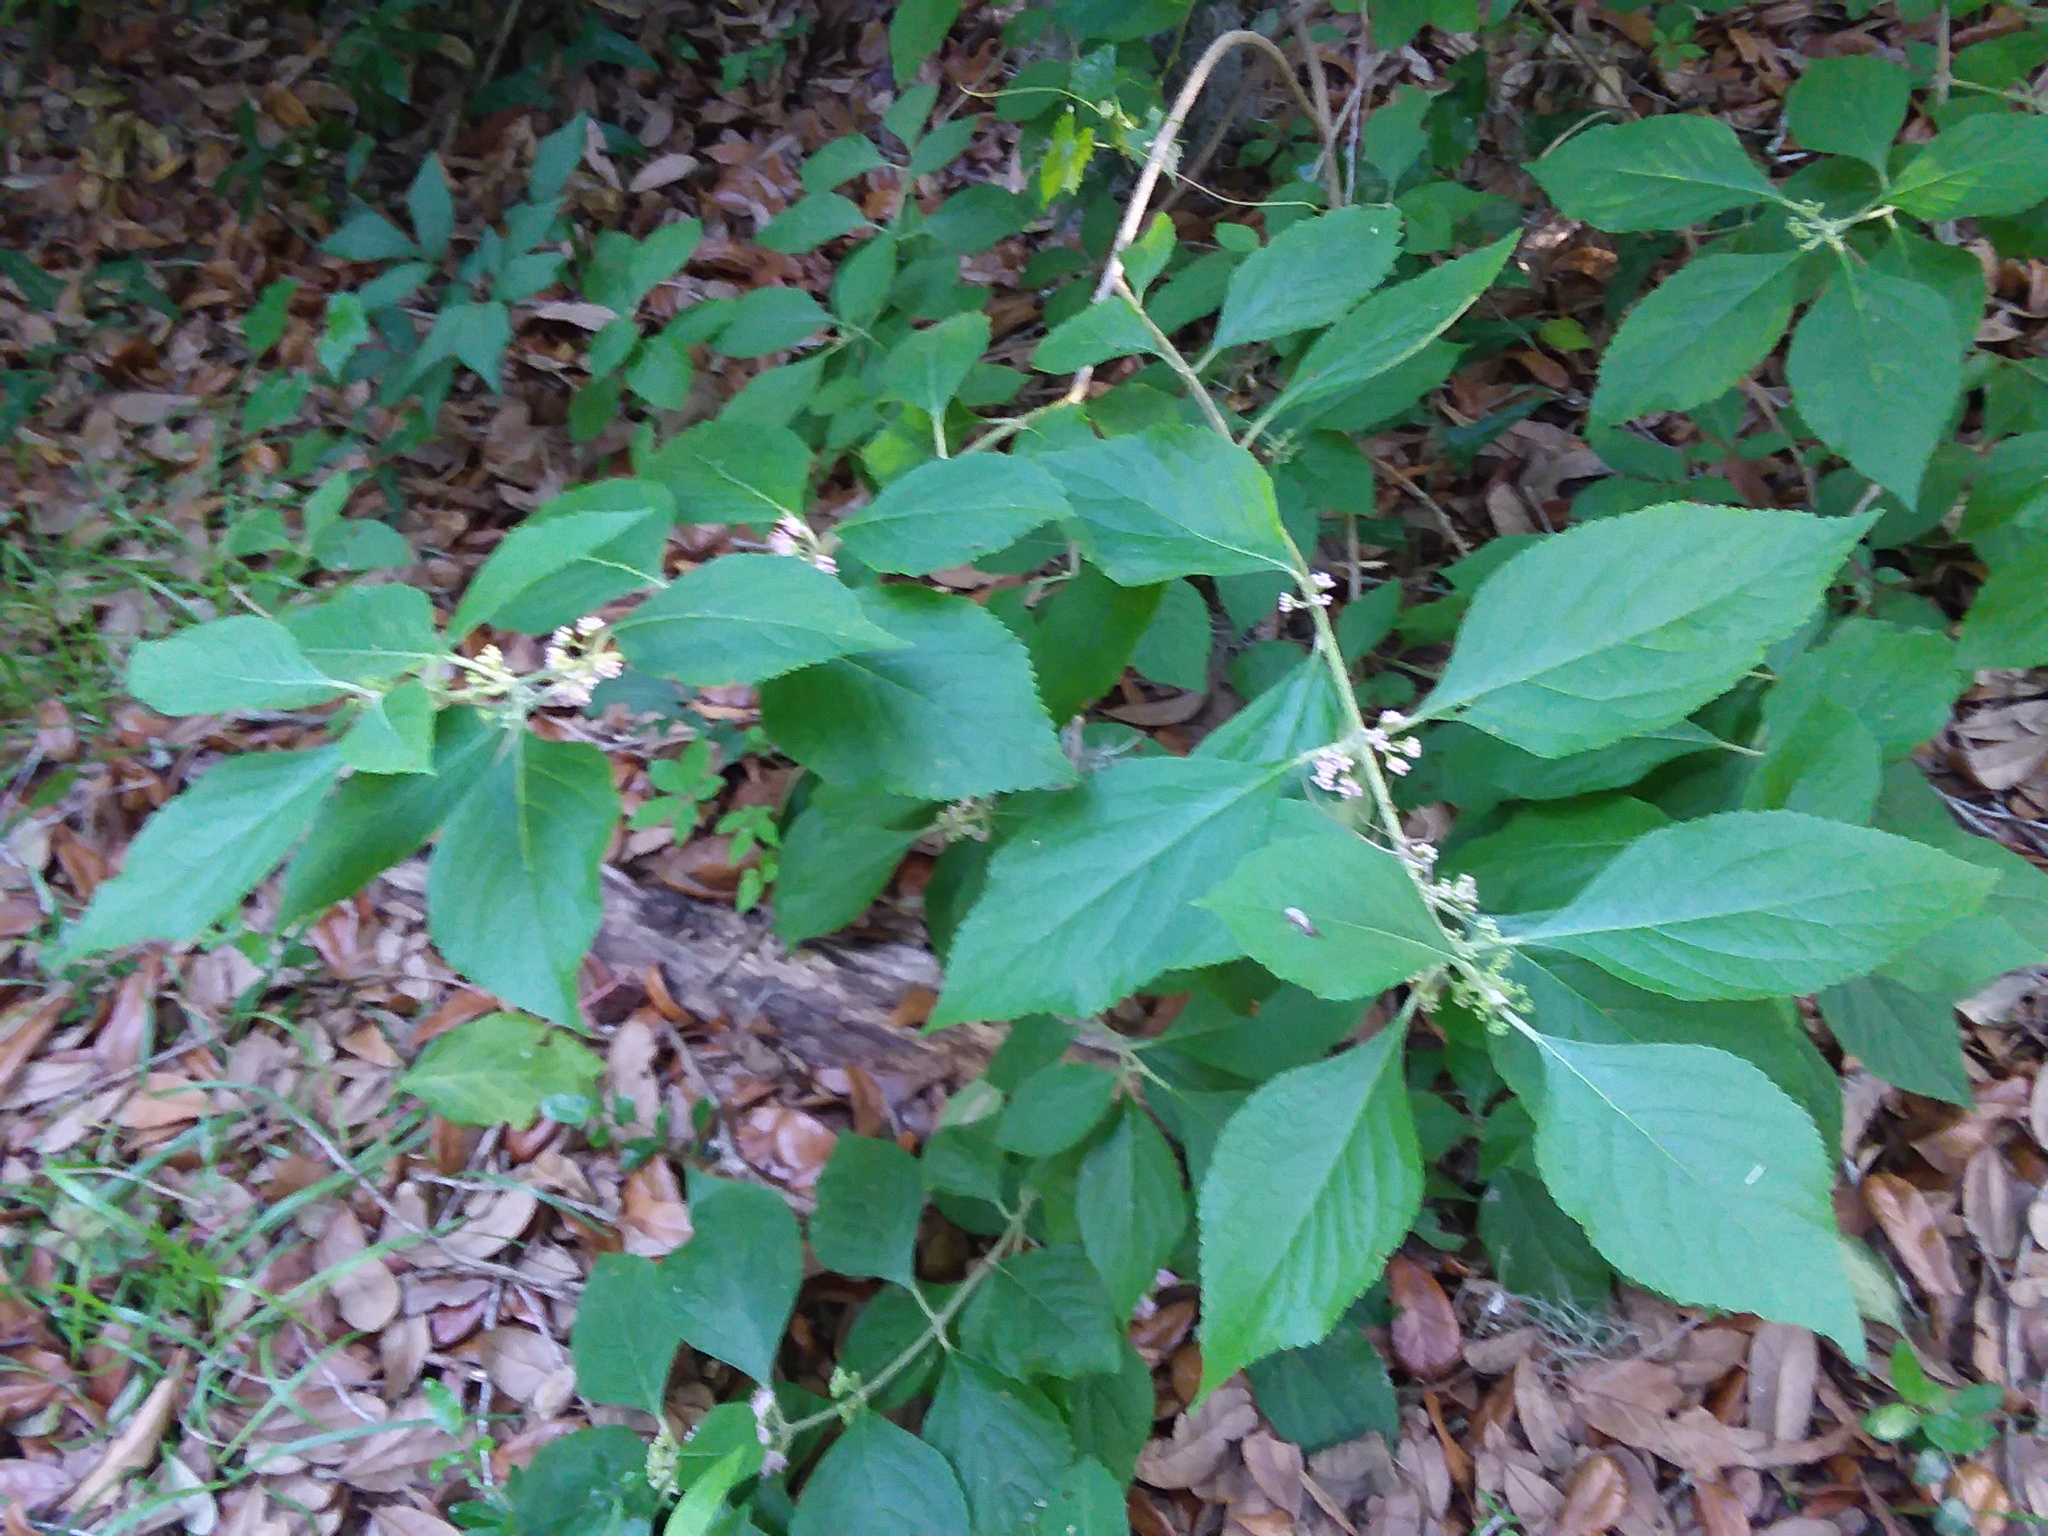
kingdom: Plantae
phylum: Tracheophyta
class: Magnoliopsida
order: Lamiales
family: Lamiaceae
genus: Callicarpa
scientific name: Callicarpa americana
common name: American beautyberry
